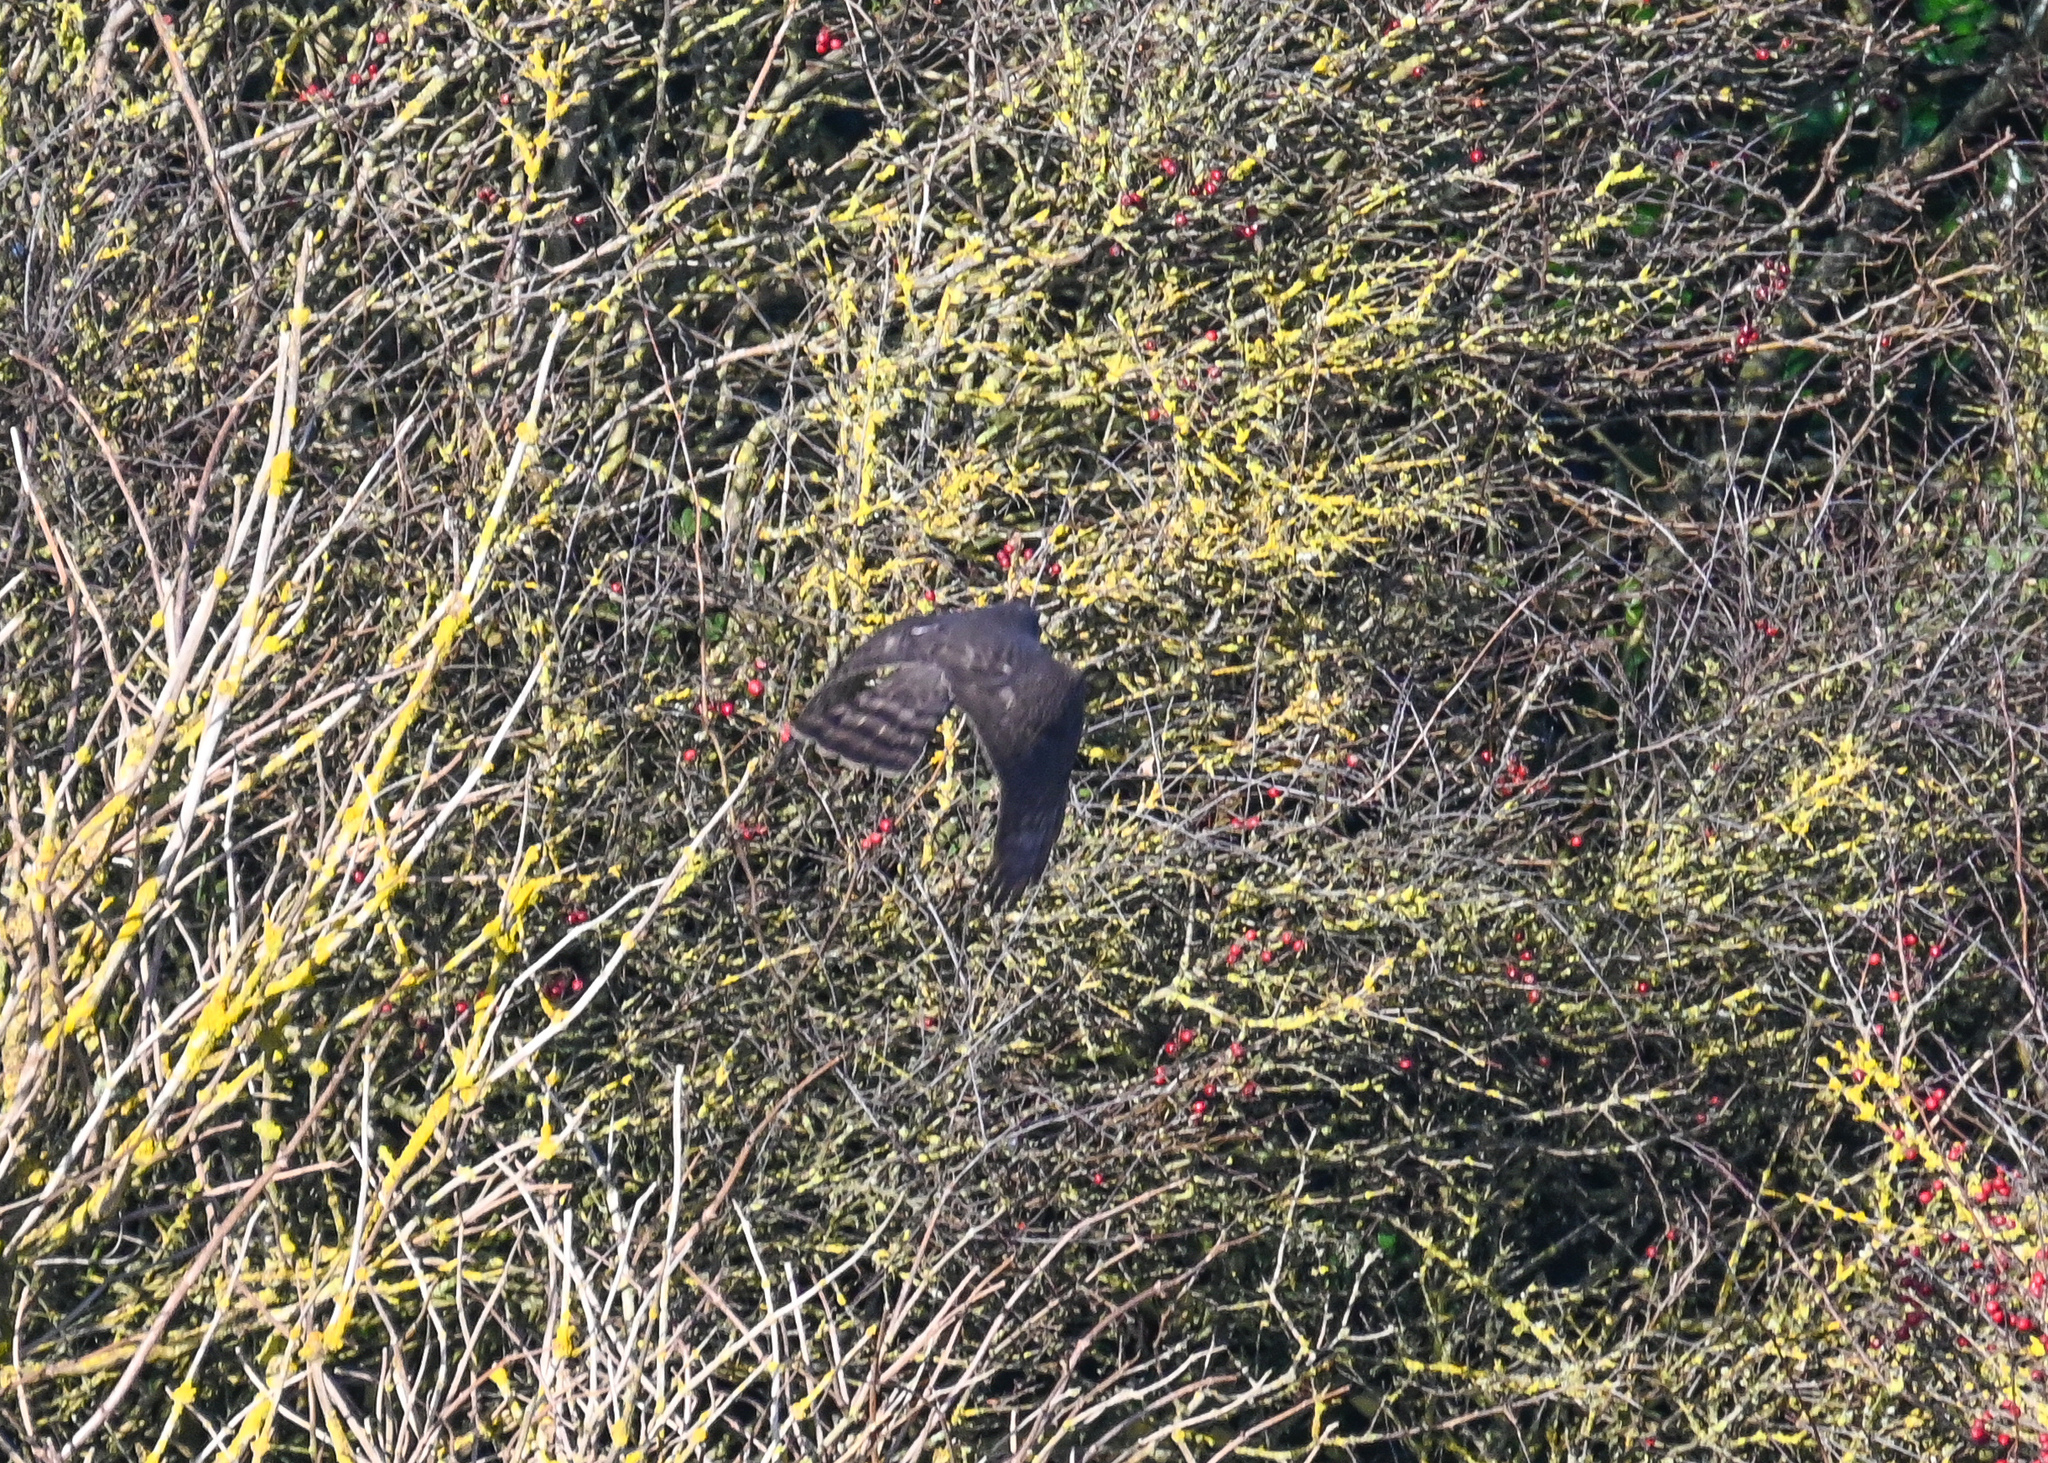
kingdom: Animalia
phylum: Chordata
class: Aves
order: Accipitriformes
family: Accipitridae
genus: Accipiter
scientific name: Accipiter nisus
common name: Eurasian sparrowhawk
